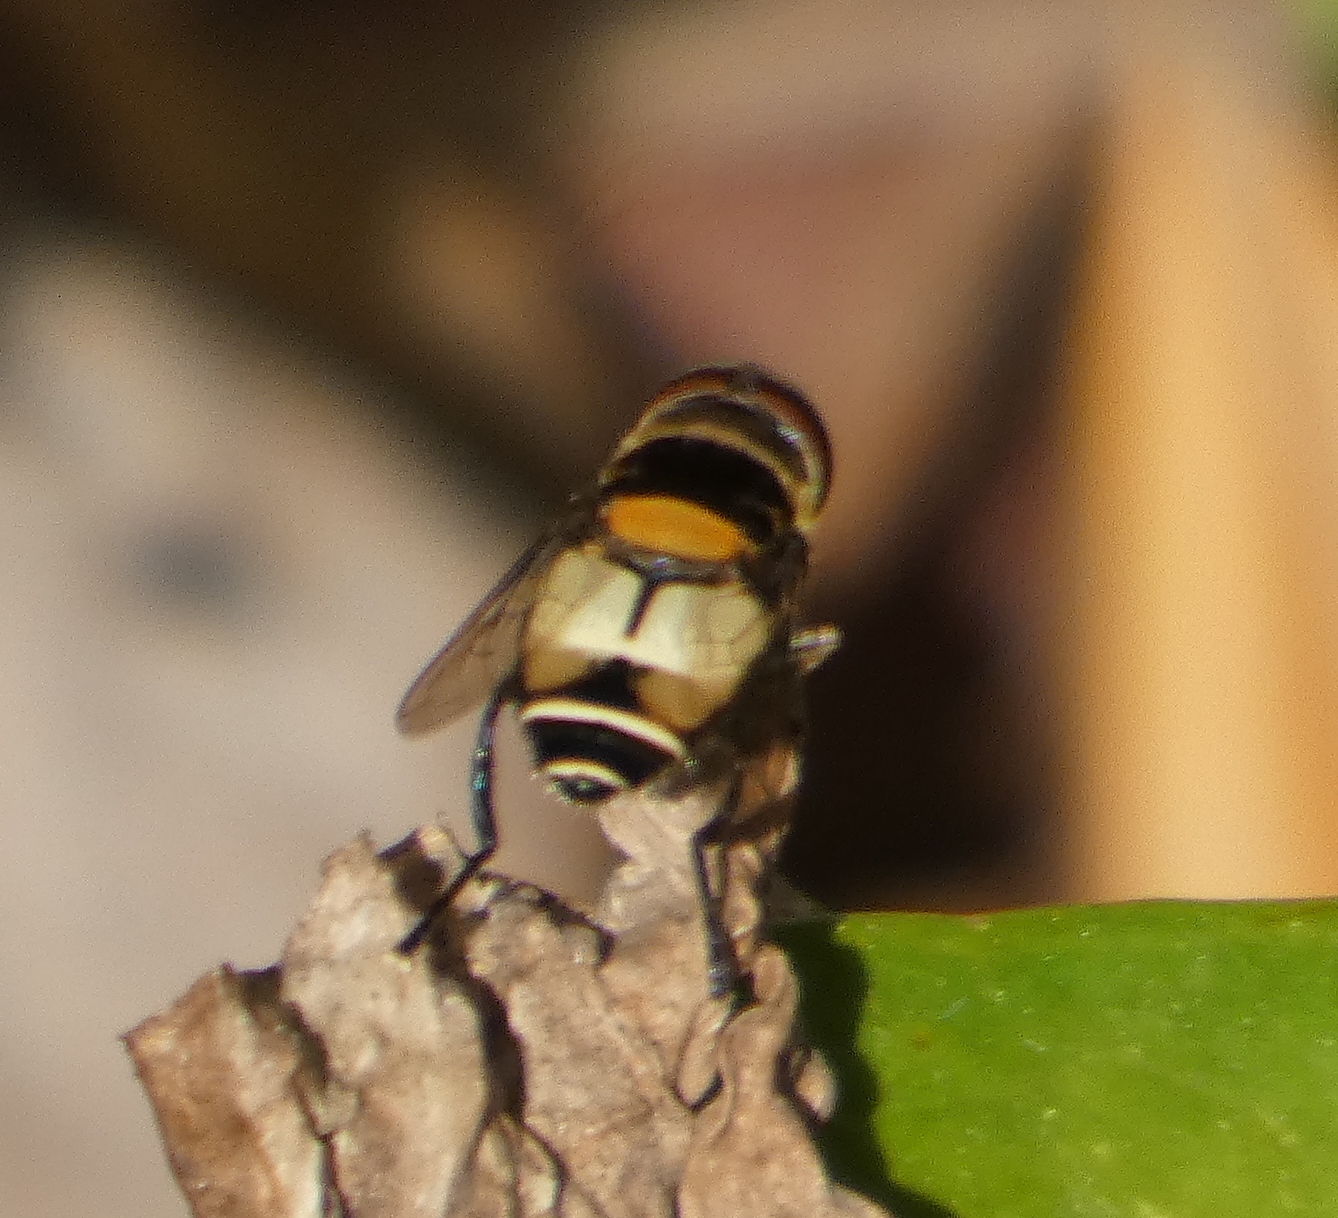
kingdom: Animalia
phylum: Arthropoda
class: Insecta
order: Diptera
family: Syrphidae
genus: Palpada
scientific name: Palpada albifrons
